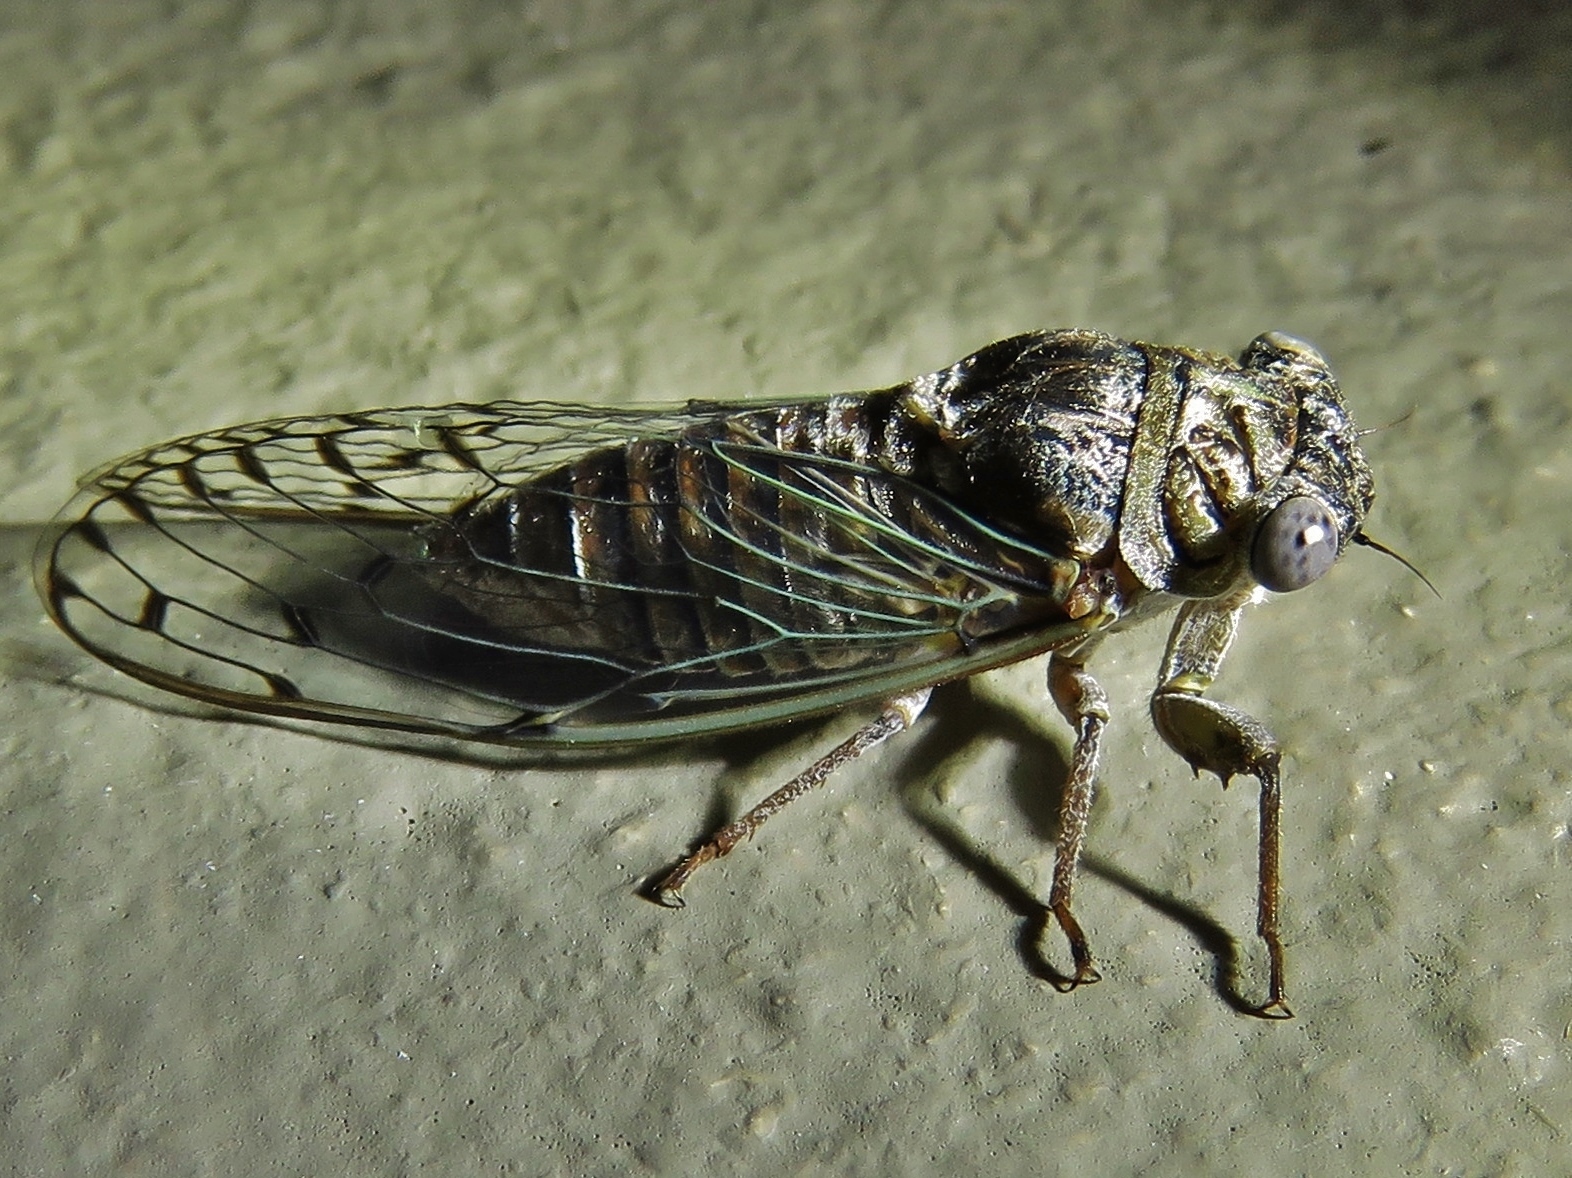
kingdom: Animalia
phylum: Arthropoda
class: Insecta
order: Hemiptera
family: Cicadidae
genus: Pacarina
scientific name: Pacarina puella
